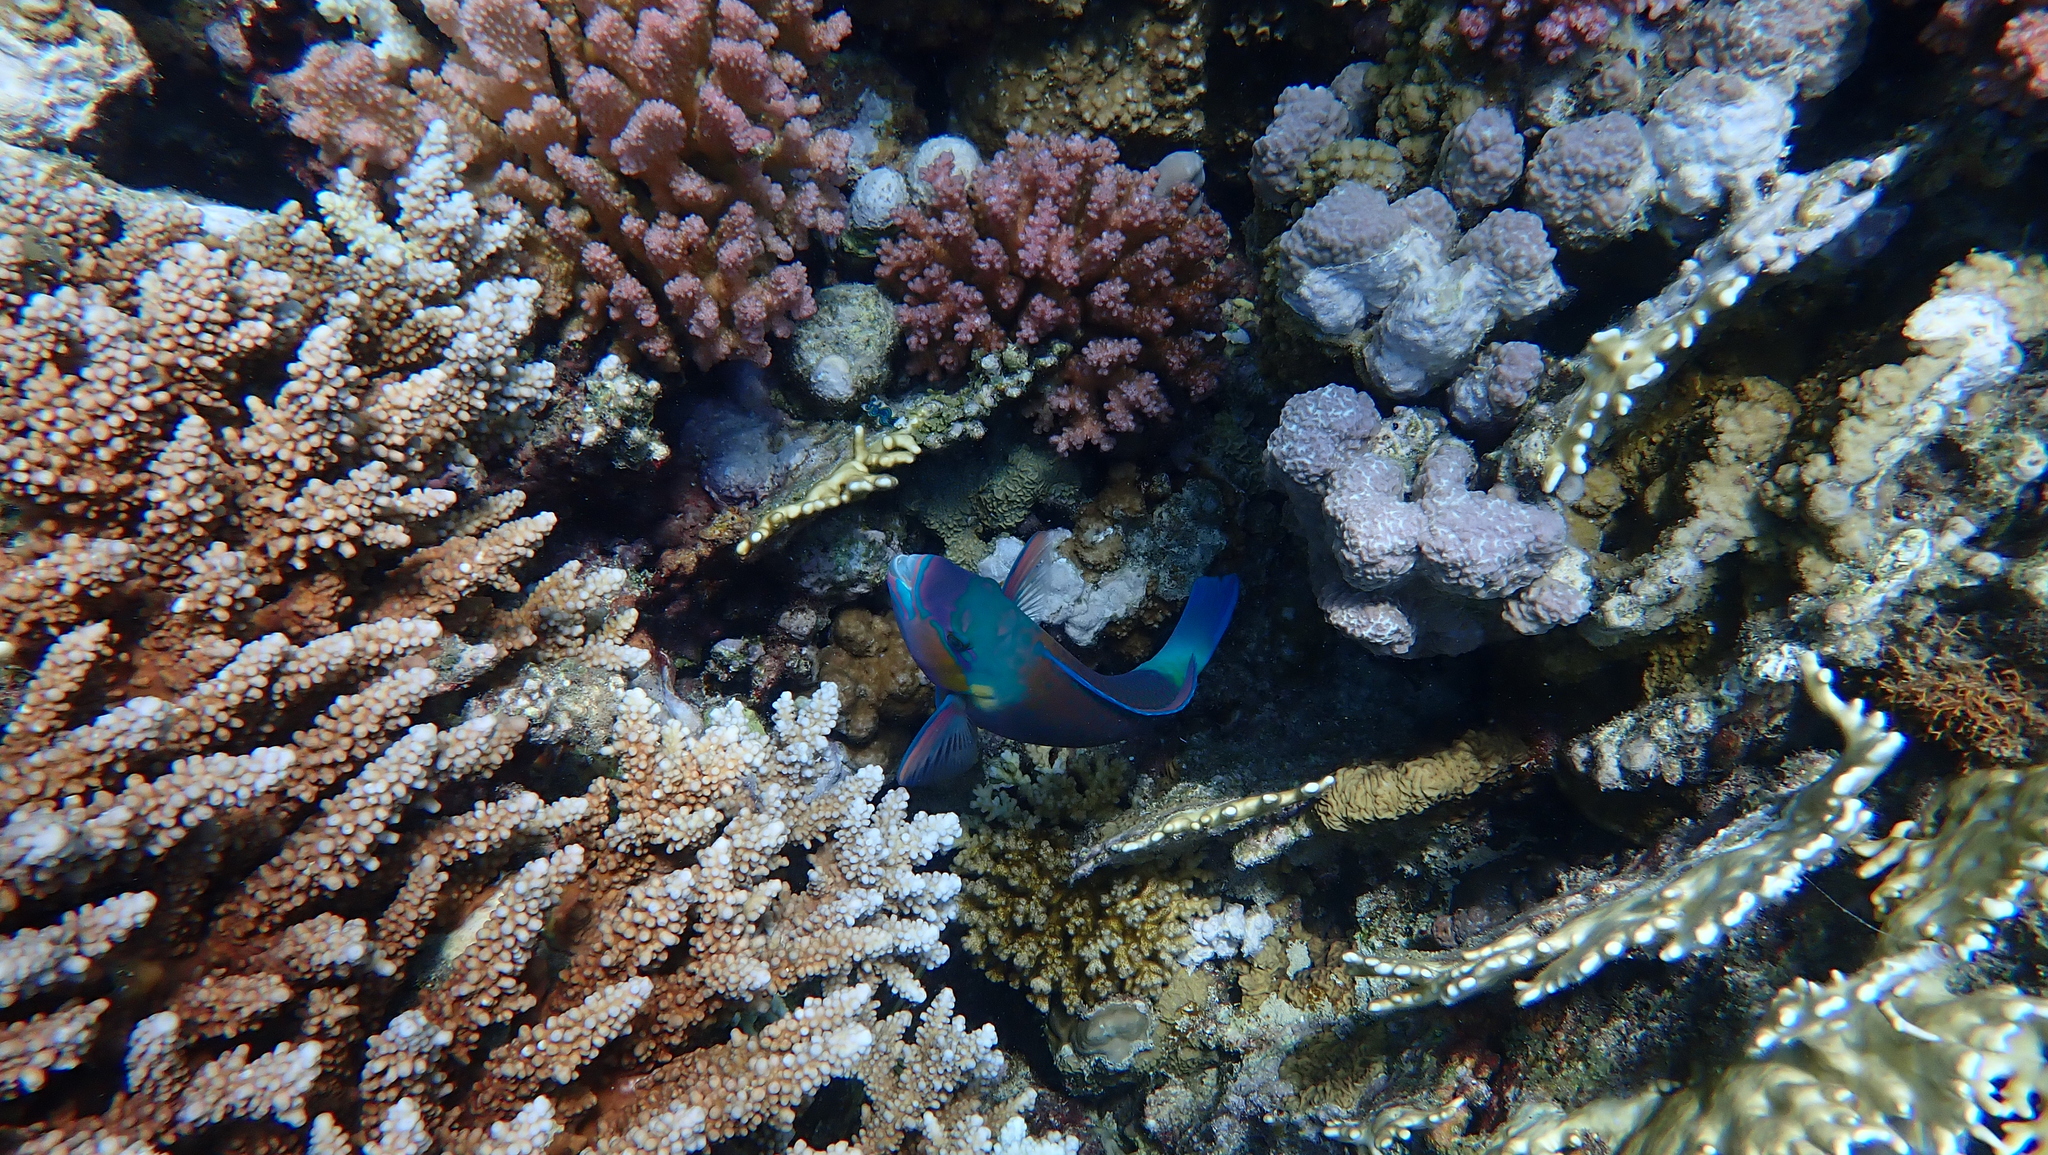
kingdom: Animalia
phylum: Chordata
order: Perciformes
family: Scaridae
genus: Chlorurus
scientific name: Chlorurus sordidus
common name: Bullethead parrotfish
